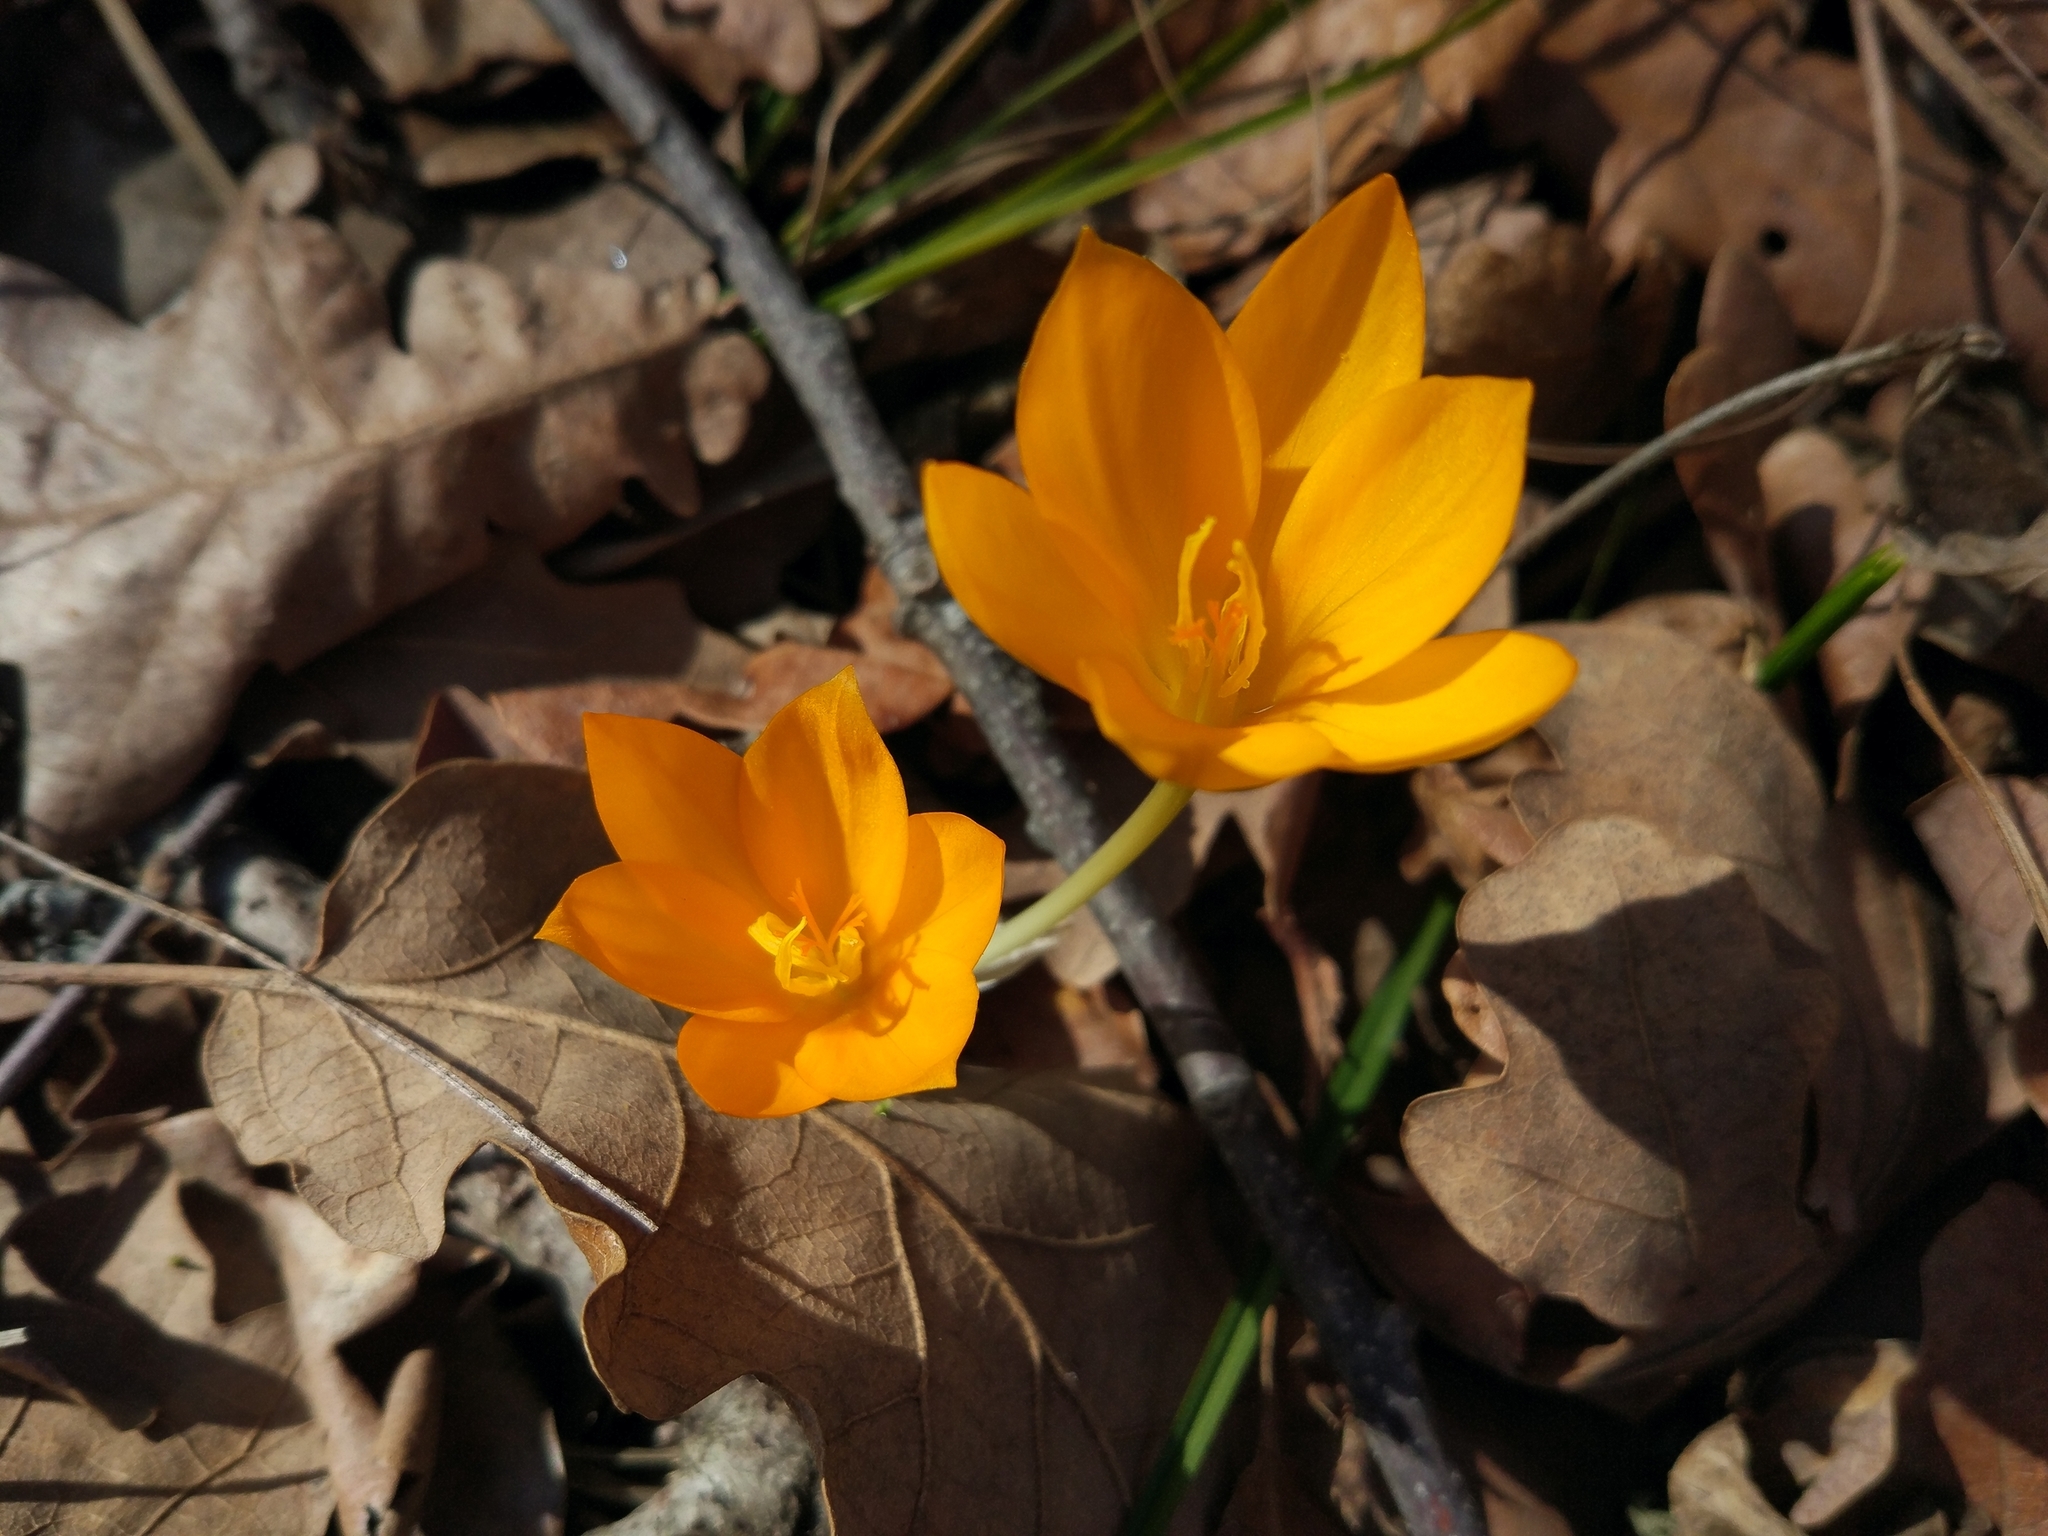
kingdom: Plantae
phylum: Tracheophyta
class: Liliopsida
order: Asparagales
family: Iridaceae
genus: Crocus
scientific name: Crocus flavus
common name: Yellow crocus
